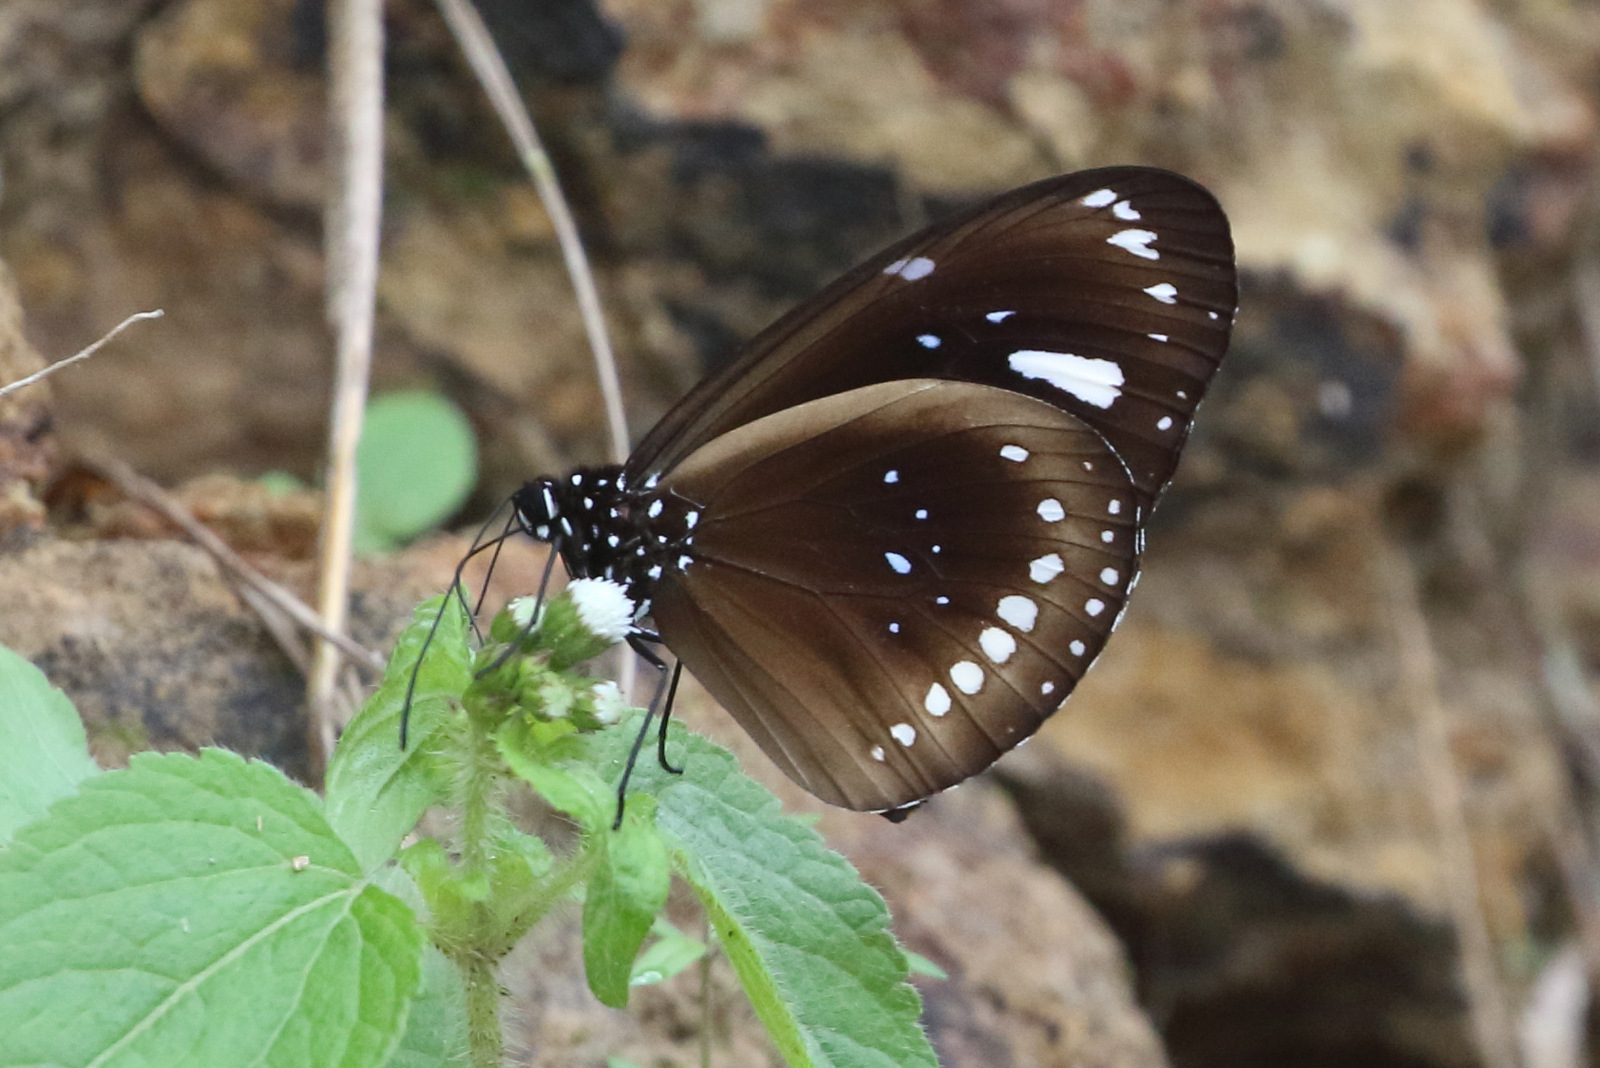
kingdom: Animalia
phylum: Arthropoda
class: Insecta
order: Lepidoptera
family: Nymphalidae
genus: Euploea
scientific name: Euploea lewinii
